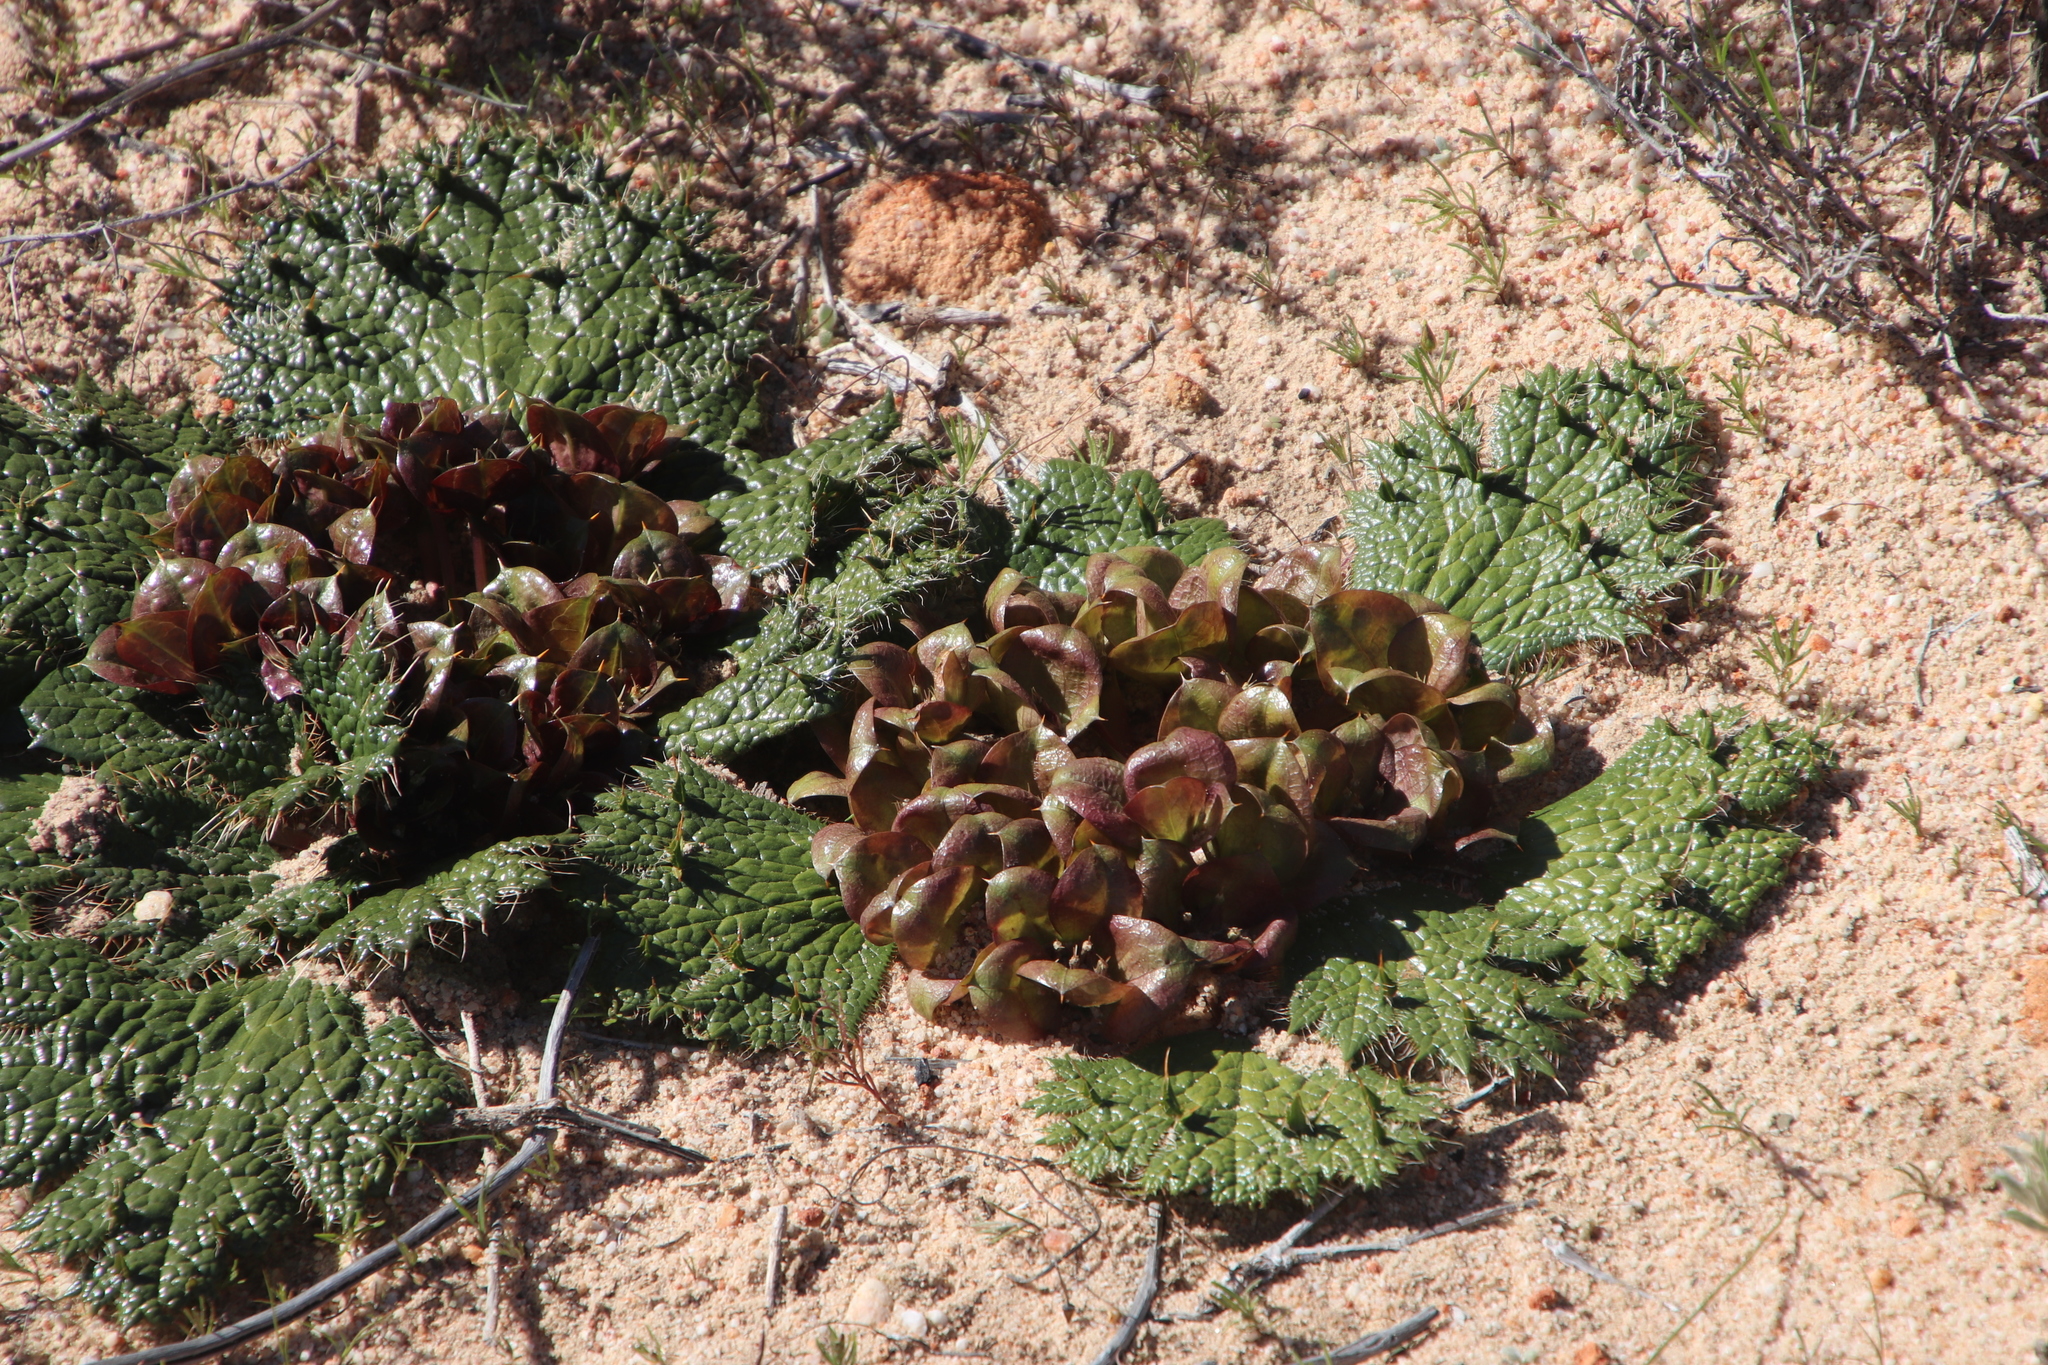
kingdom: Plantae
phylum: Tracheophyta
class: Magnoliopsida
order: Apiales
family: Apiaceae
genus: Arctopus
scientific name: Arctopus monacanthus
